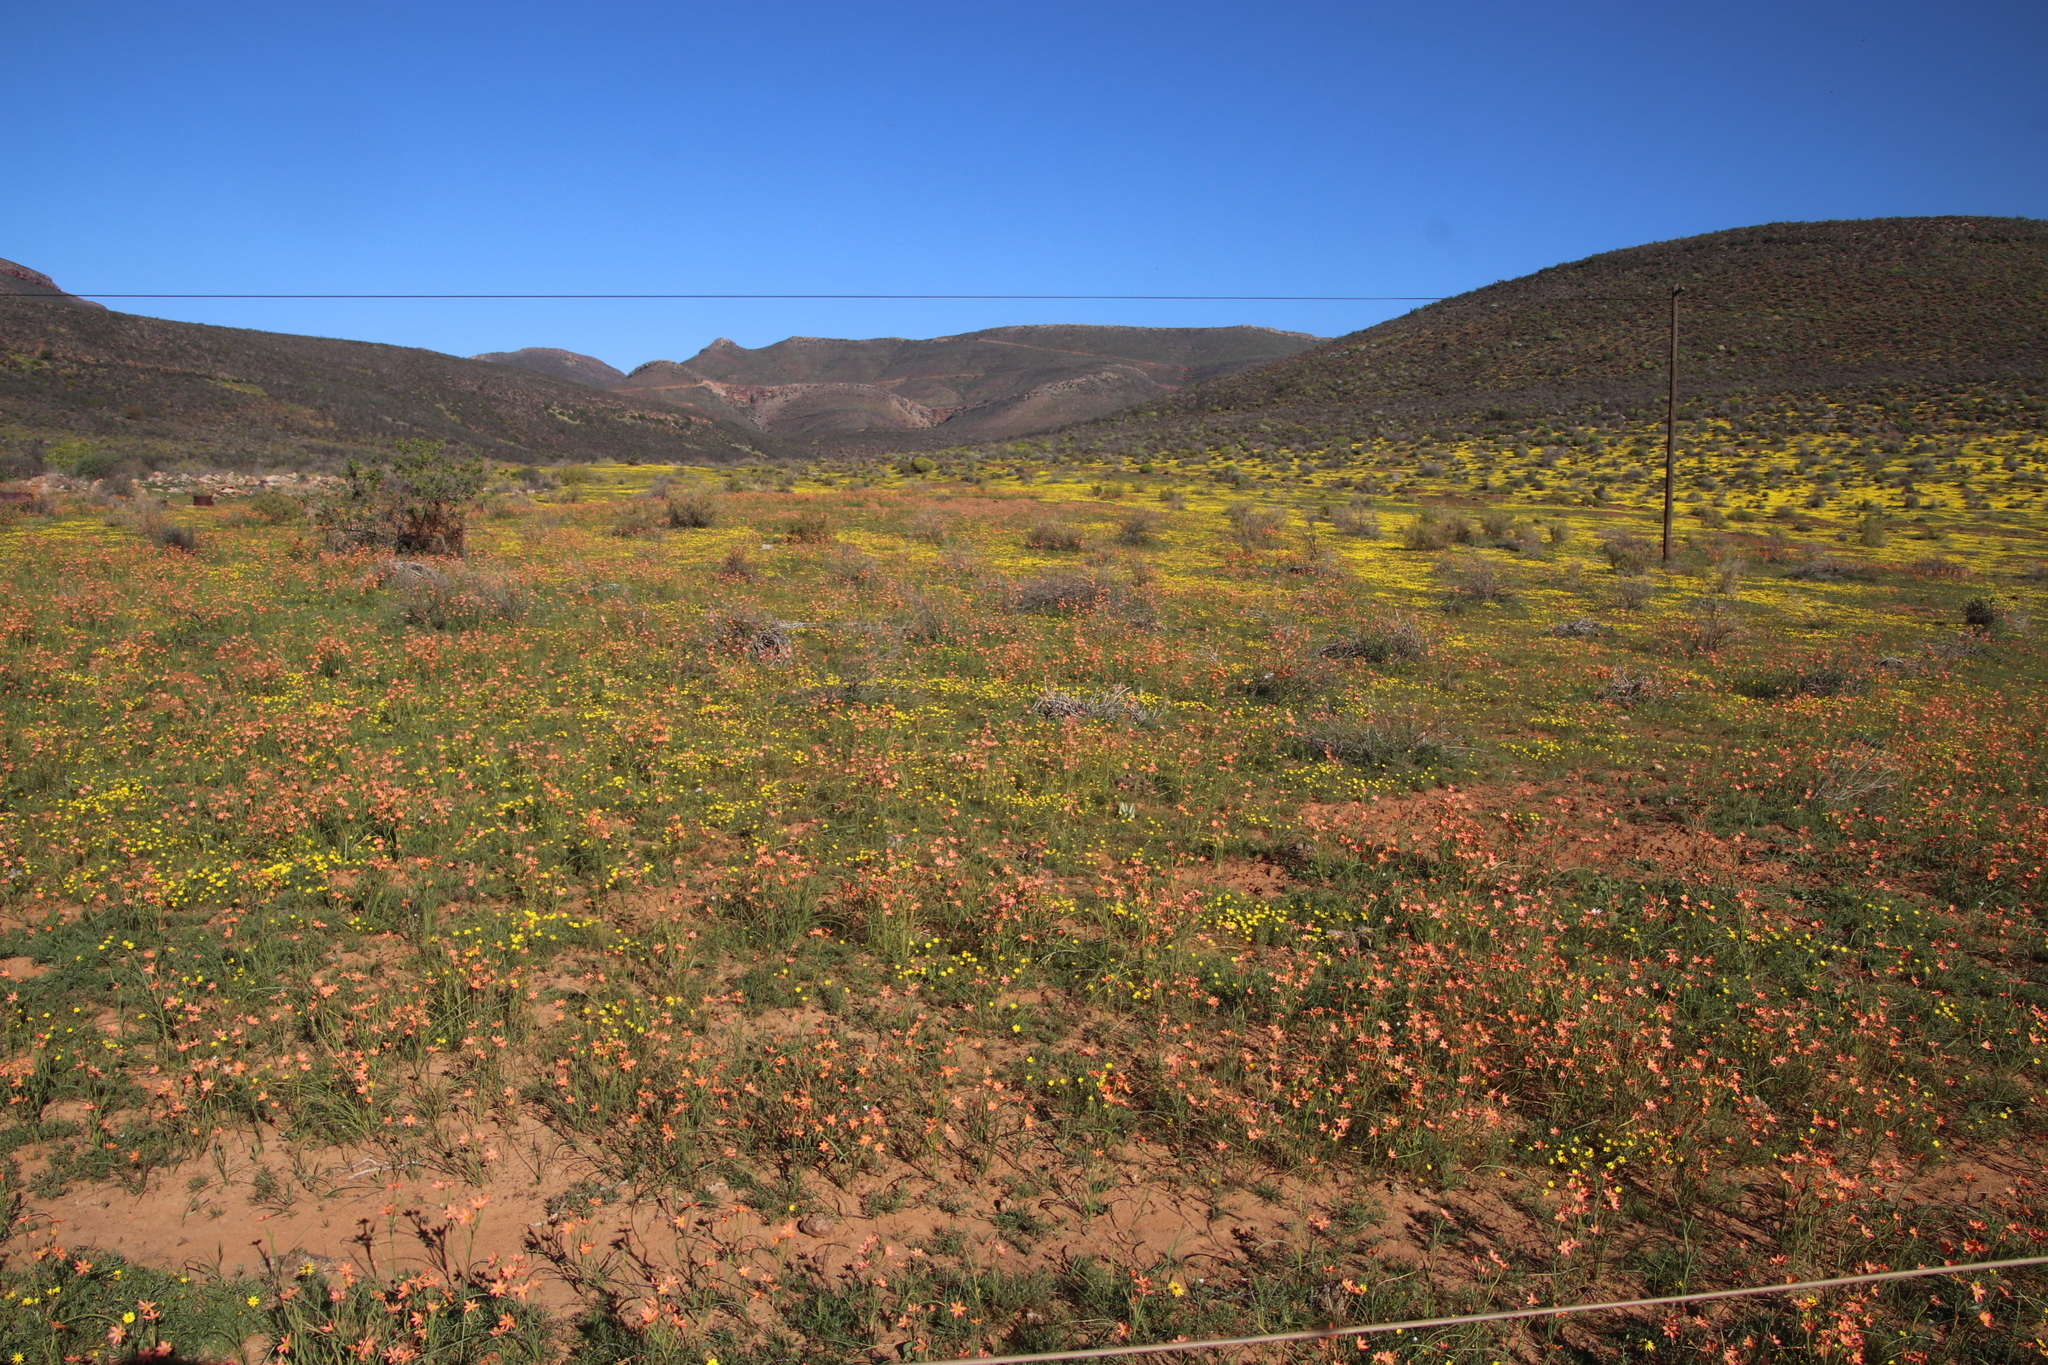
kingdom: Plantae
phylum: Tracheophyta
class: Liliopsida
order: Asparagales
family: Iridaceae
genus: Moraea
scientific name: Moraea miniata
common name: Two-leaf cape-tulip
